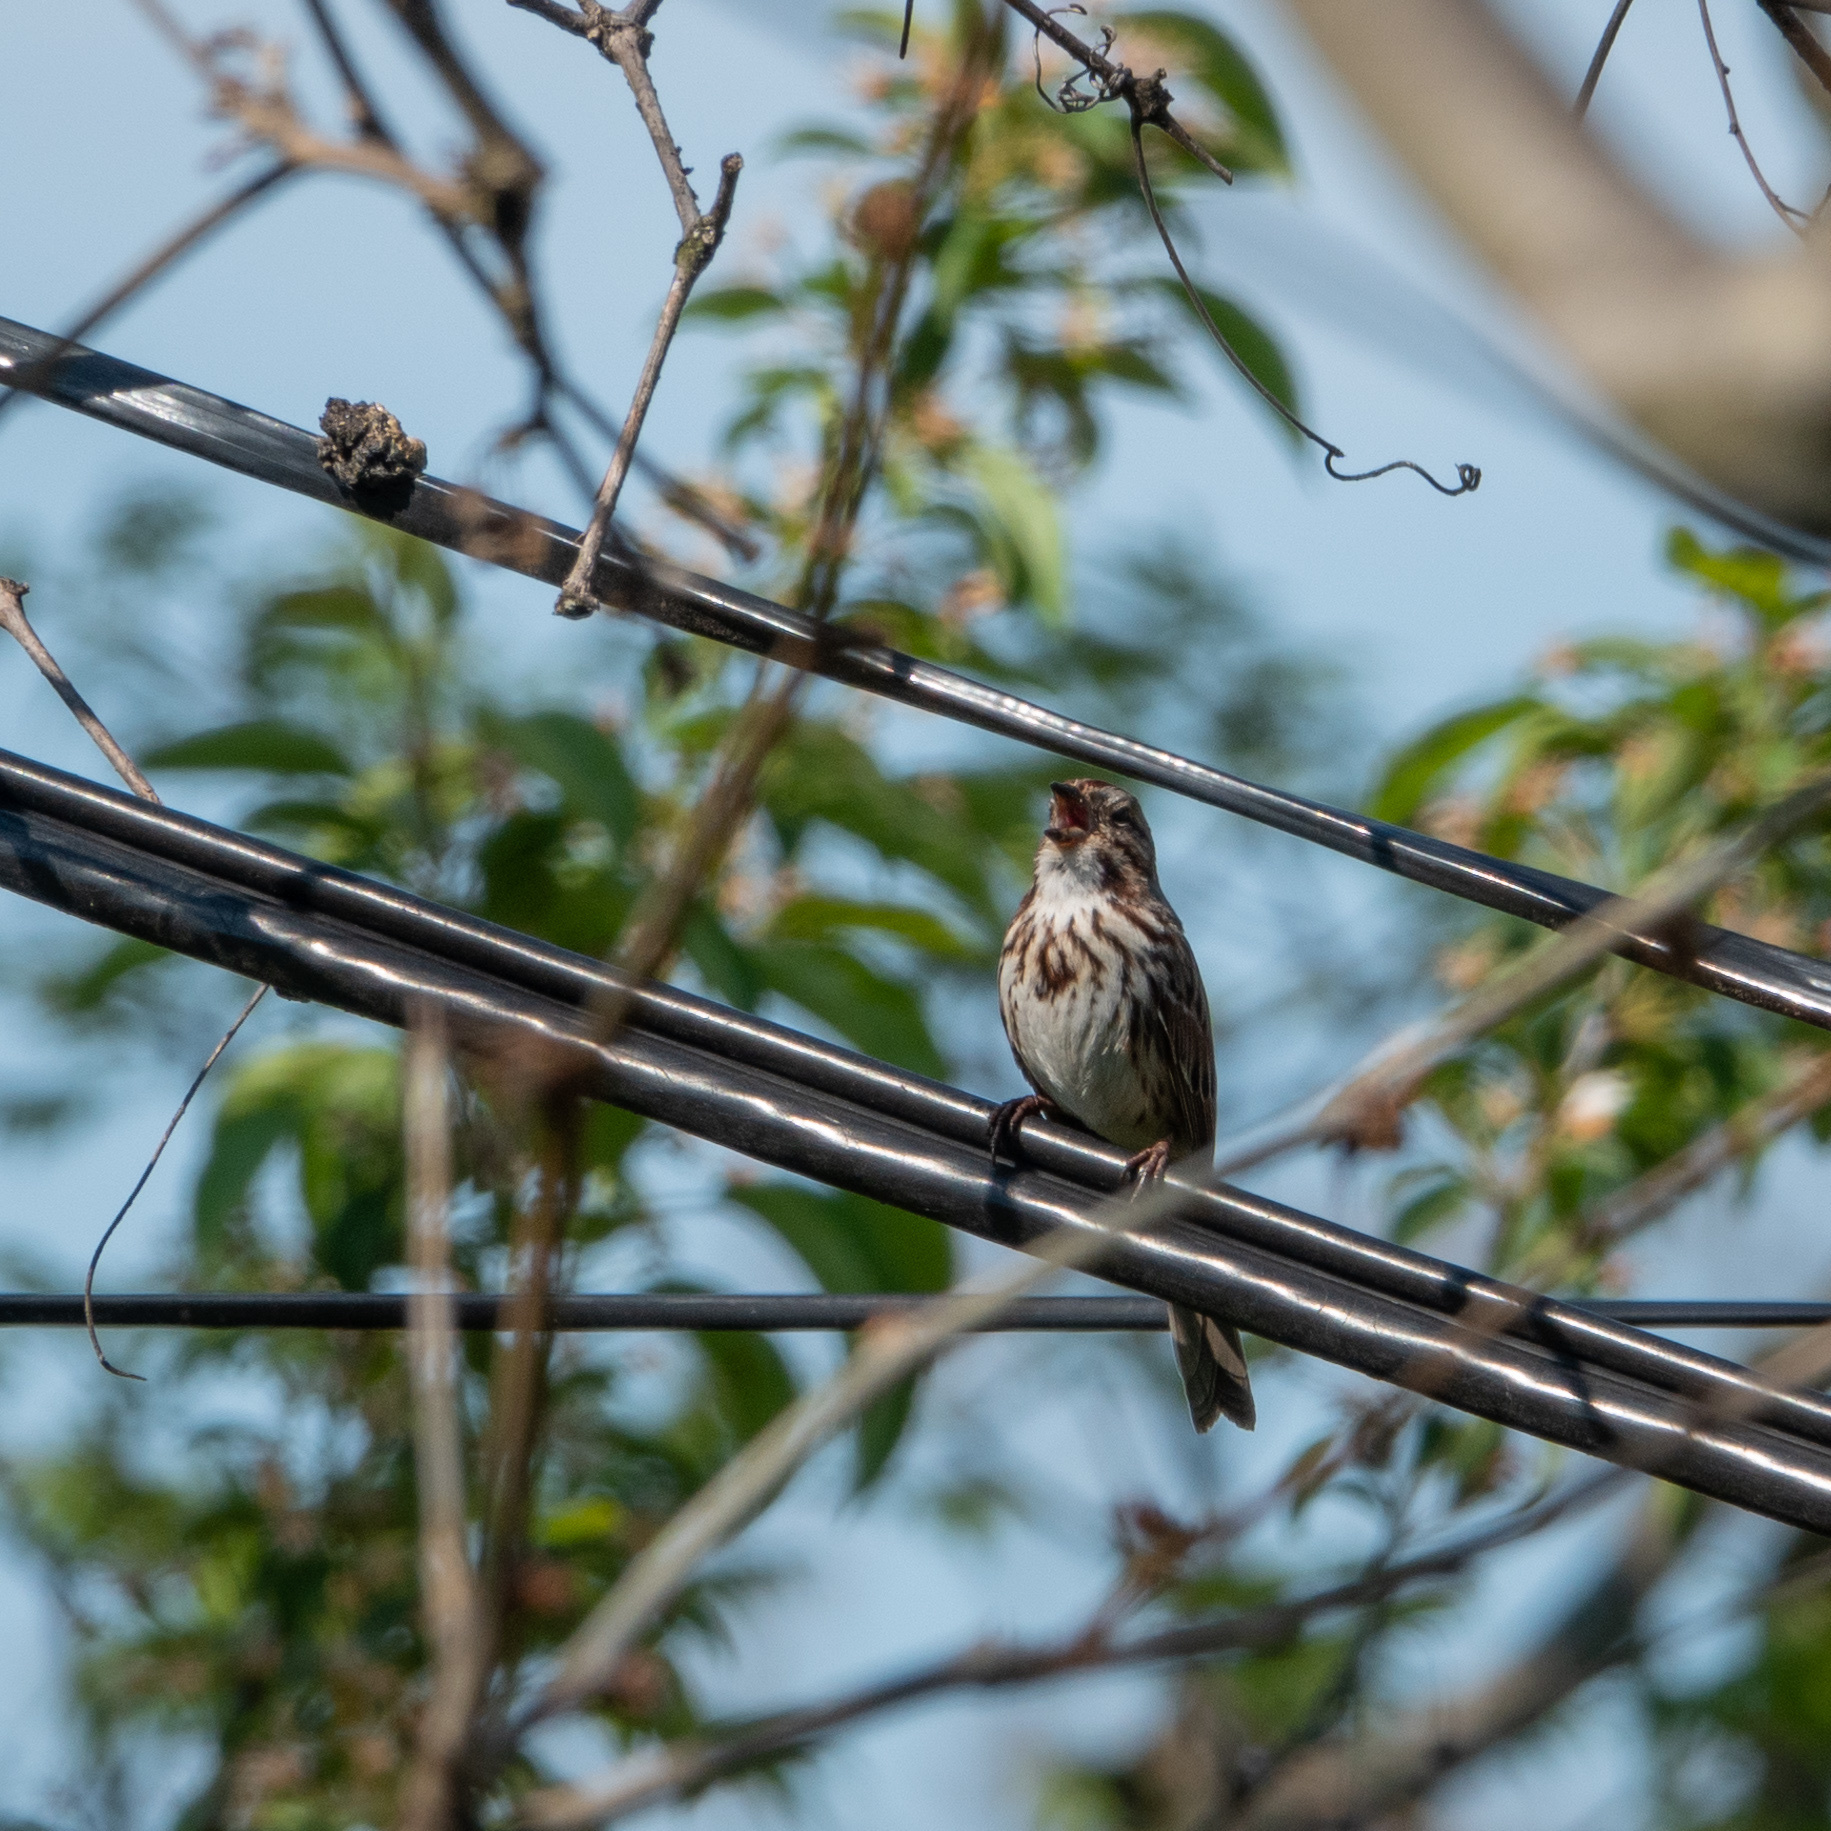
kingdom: Animalia
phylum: Chordata
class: Aves
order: Passeriformes
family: Passerellidae
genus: Melospiza
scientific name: Melospiza melodia
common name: Song sparrow
